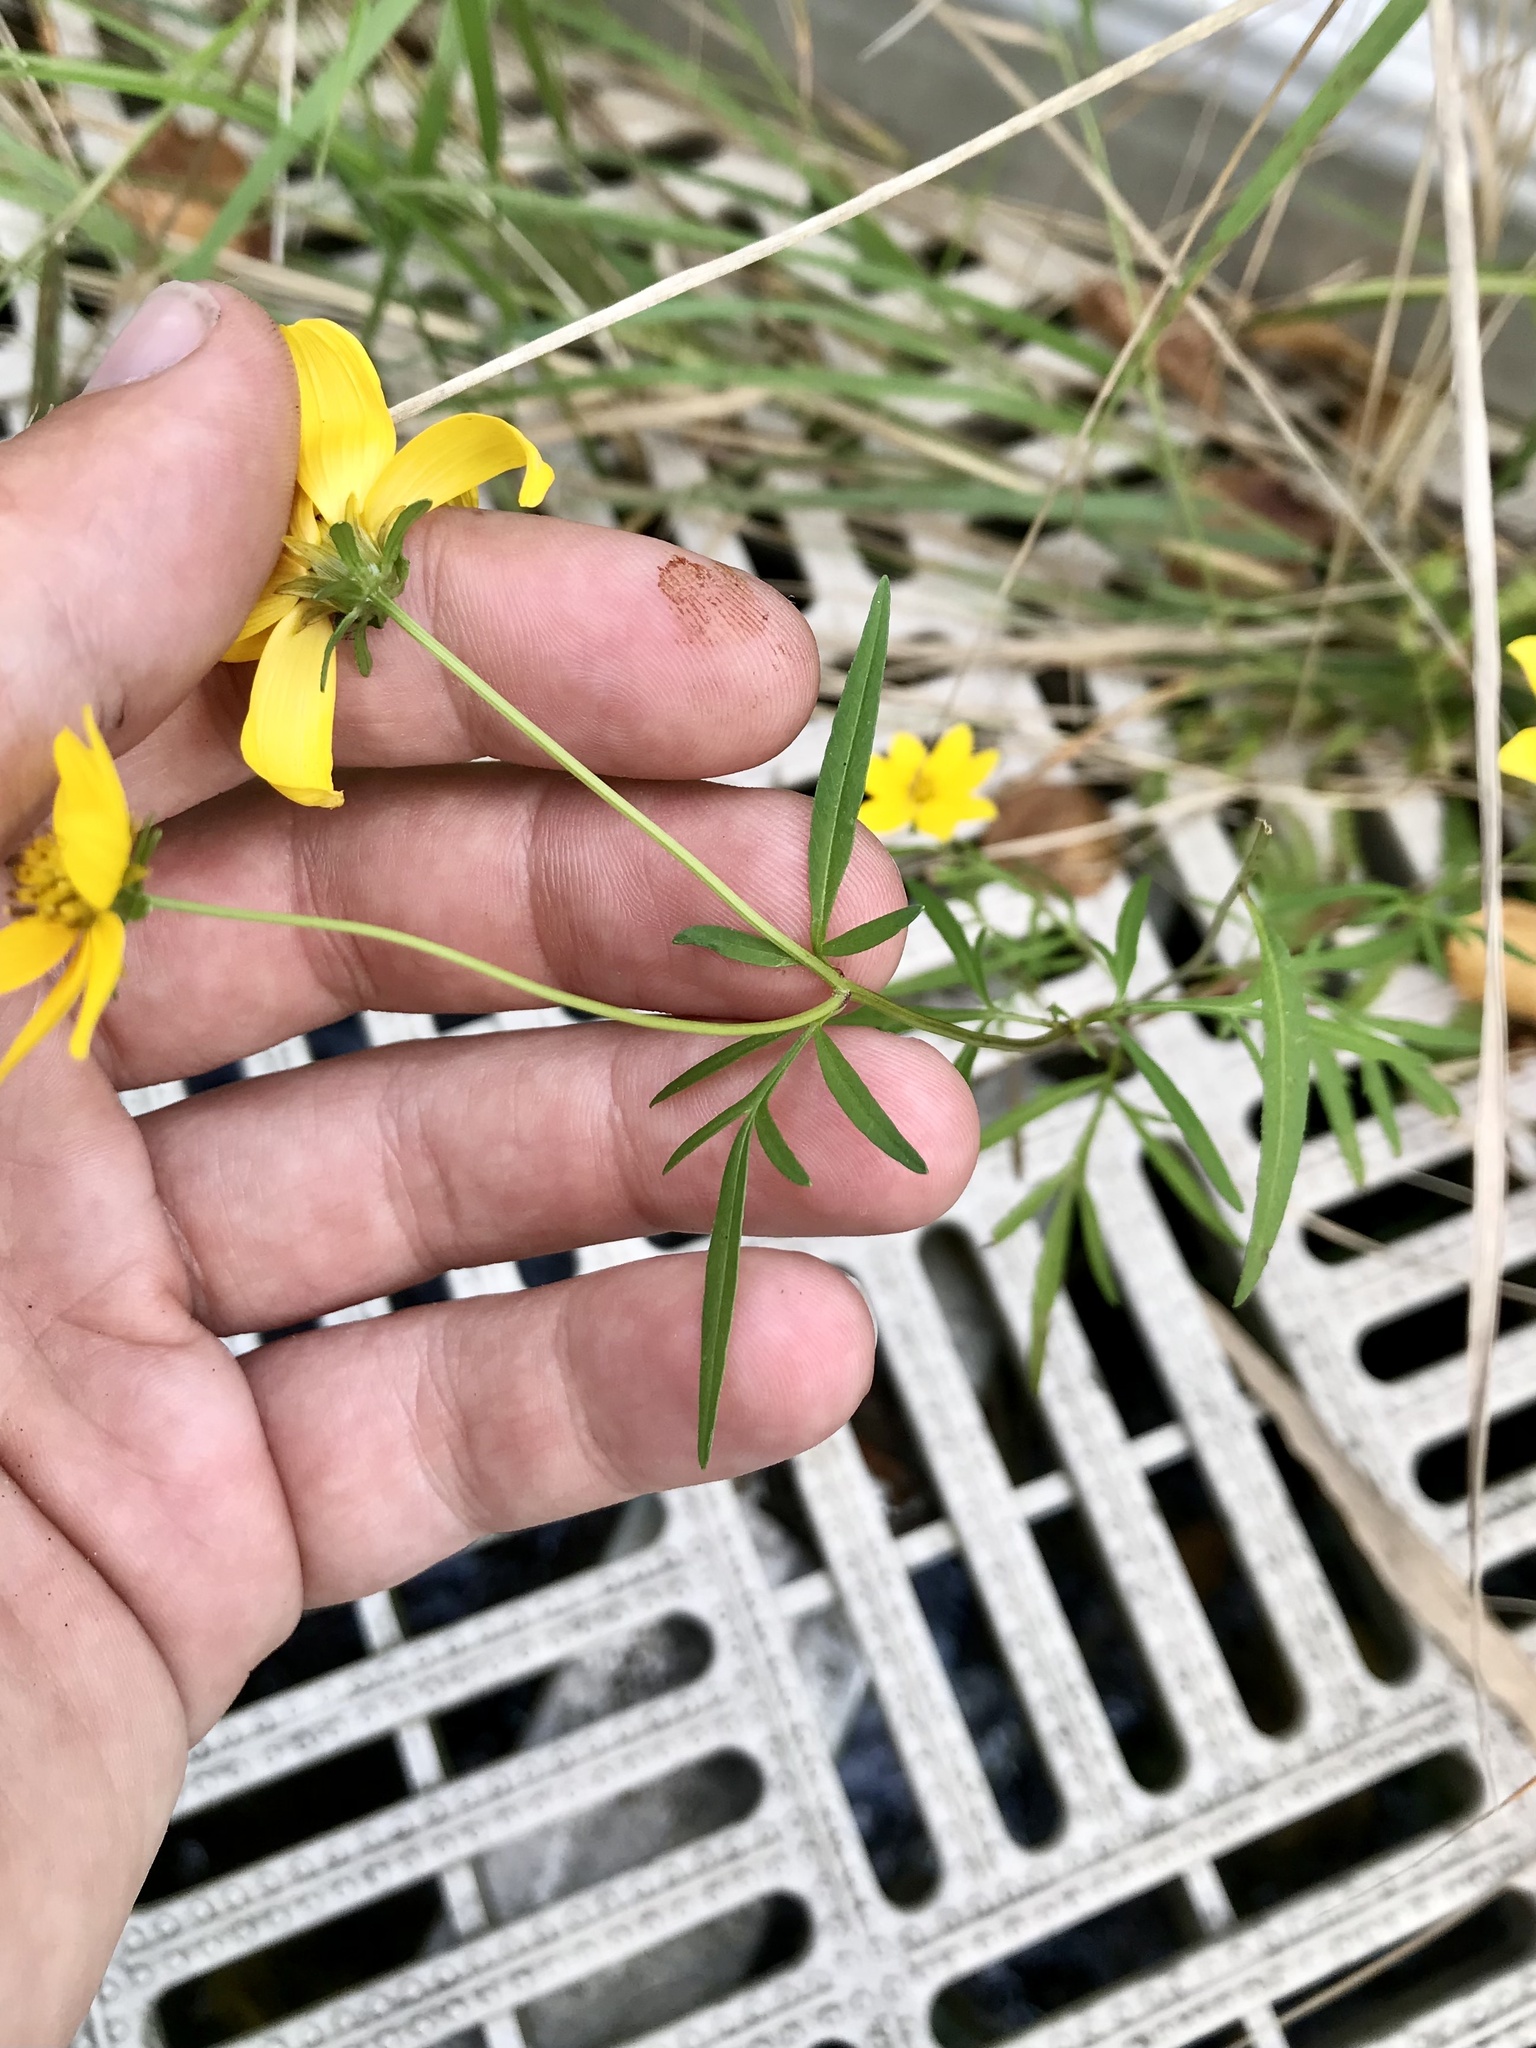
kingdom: Plantae
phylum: Tracheophyta
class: Magnoliopsida
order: Asterales
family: Asteraceae
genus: Bidens
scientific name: Bidens trichosperma
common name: Crowned beggarticks
